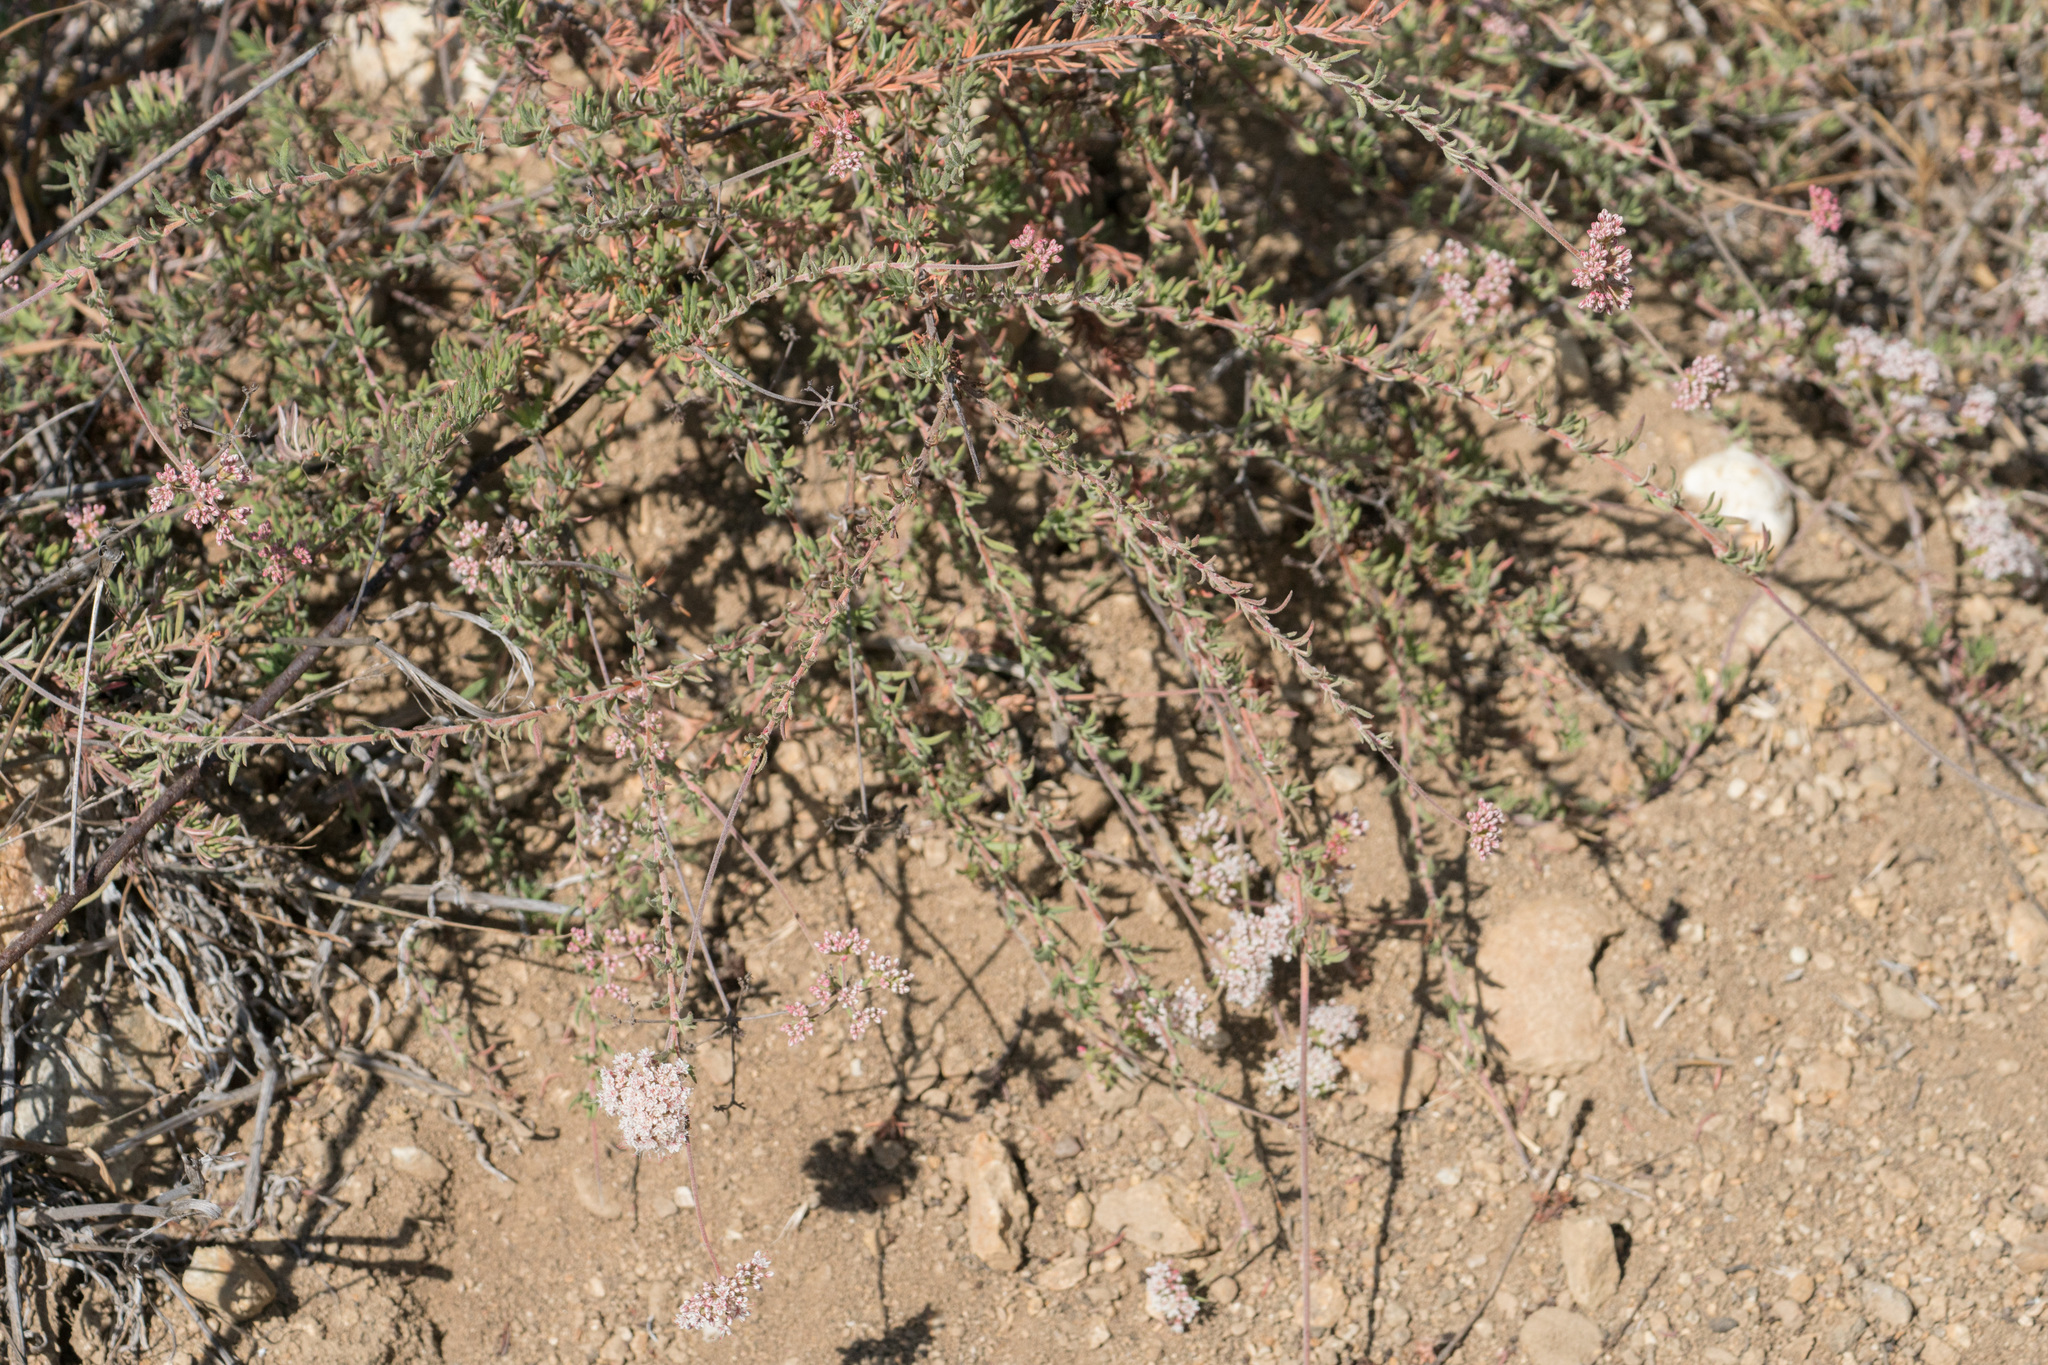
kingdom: Plantae
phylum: Tracheophyta
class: Magnoliopsida
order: Caryophyllales
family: Polygonaceae
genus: Eriogonum
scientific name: Eriogonum fasciculatum
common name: California wild buckwheat
